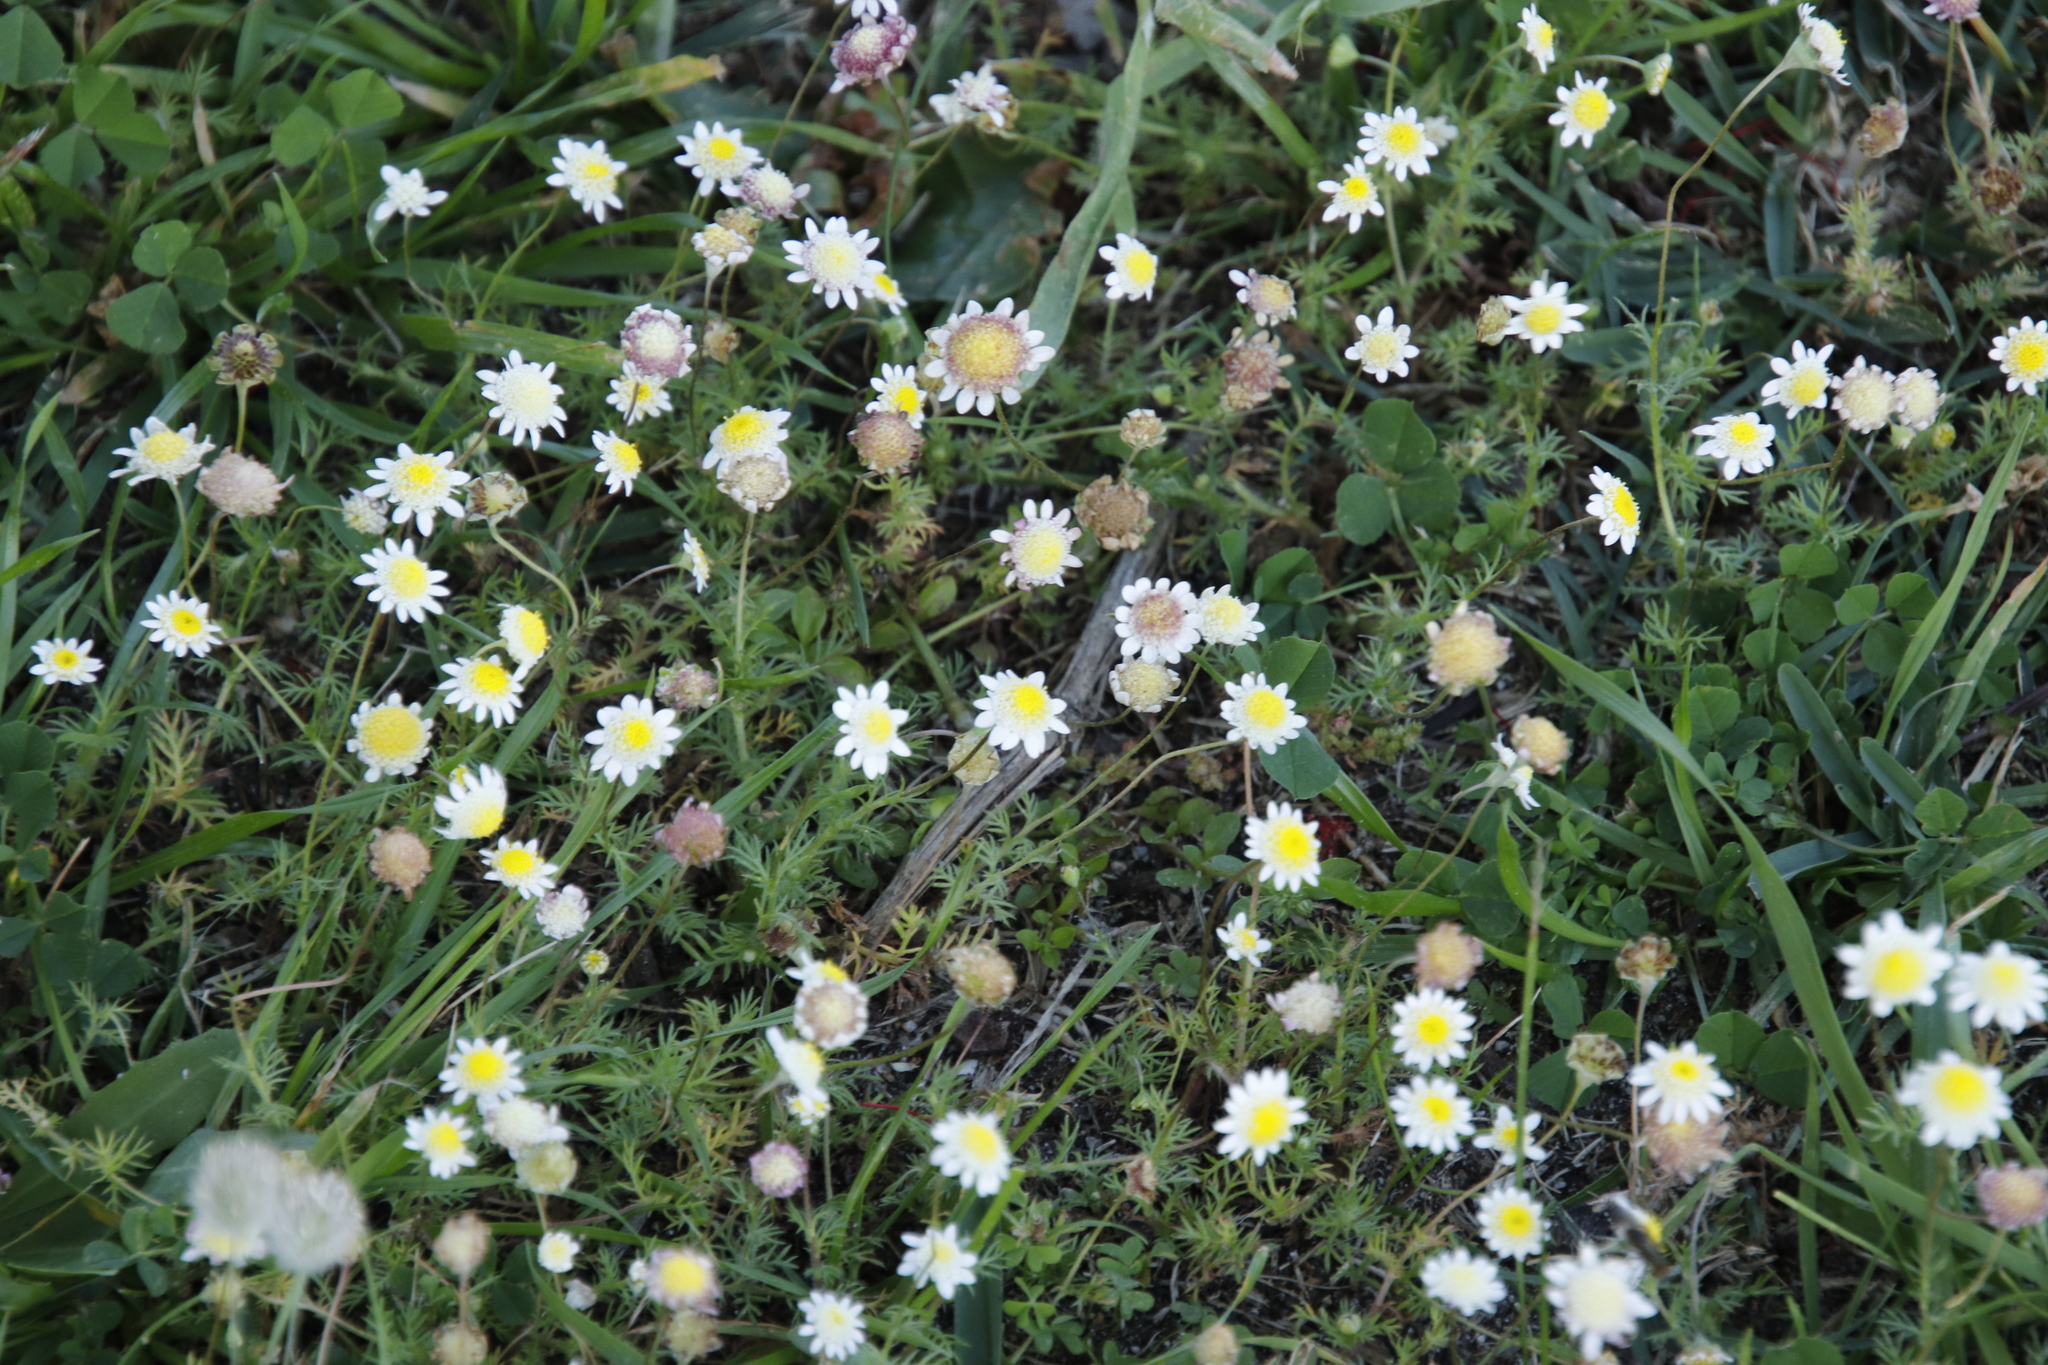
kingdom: Plantae
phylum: Tracheophyta
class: Magnoliopsida
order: Asterales
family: Asteraceae
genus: Cotula
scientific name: Cotula turbinata
